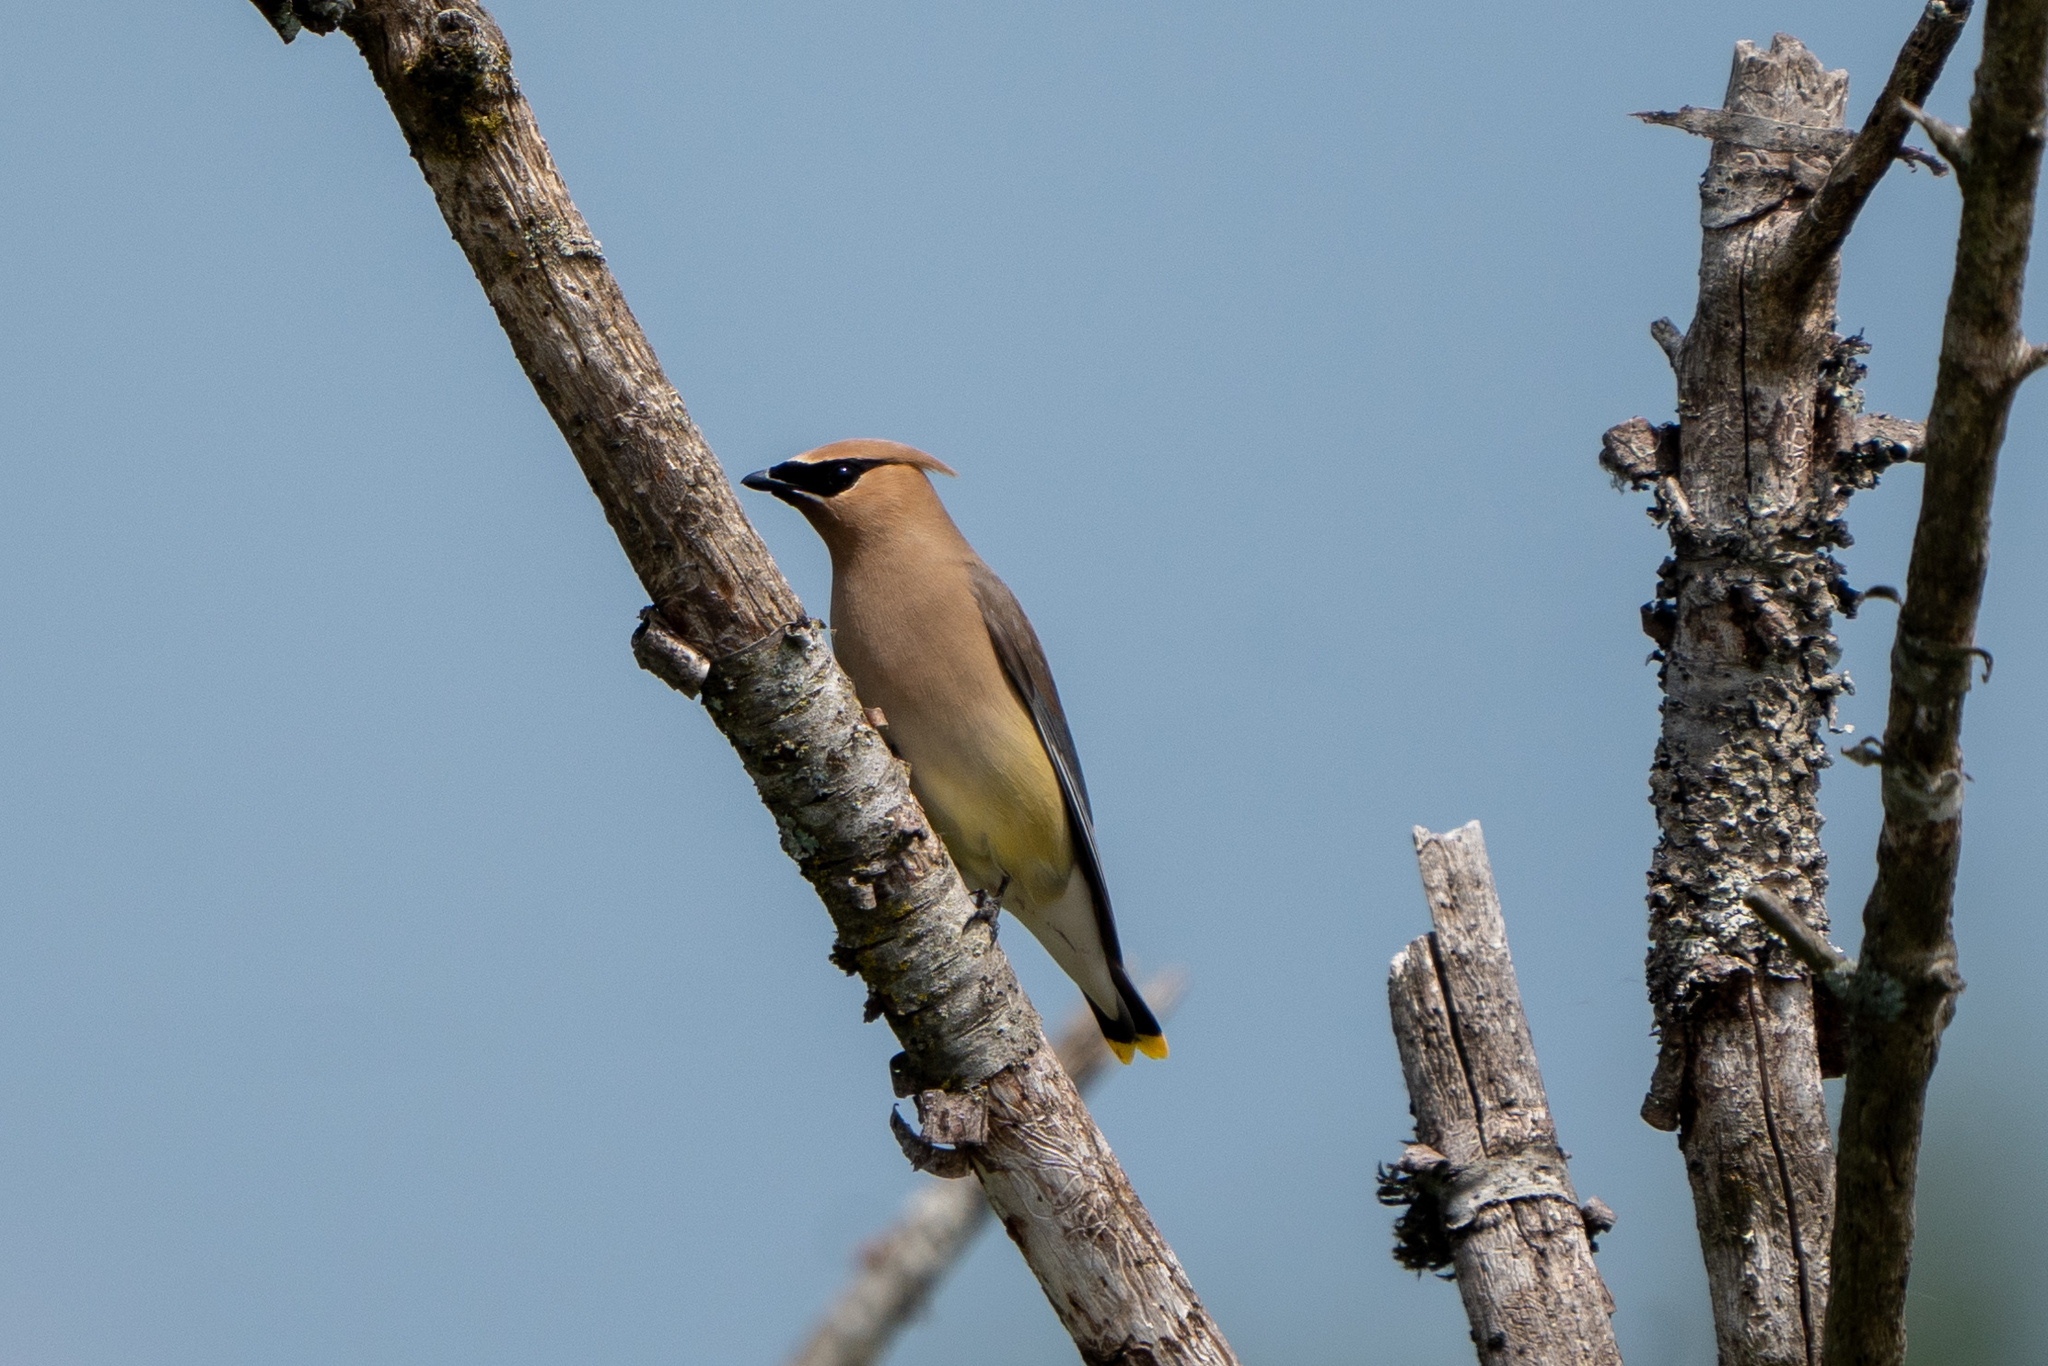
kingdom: Animalia
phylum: Chordata
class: Aves
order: Passeriformes
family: Bombycillidae
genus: Bombycilla
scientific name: Bombycilla cedrorum
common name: Cedar waxwing
